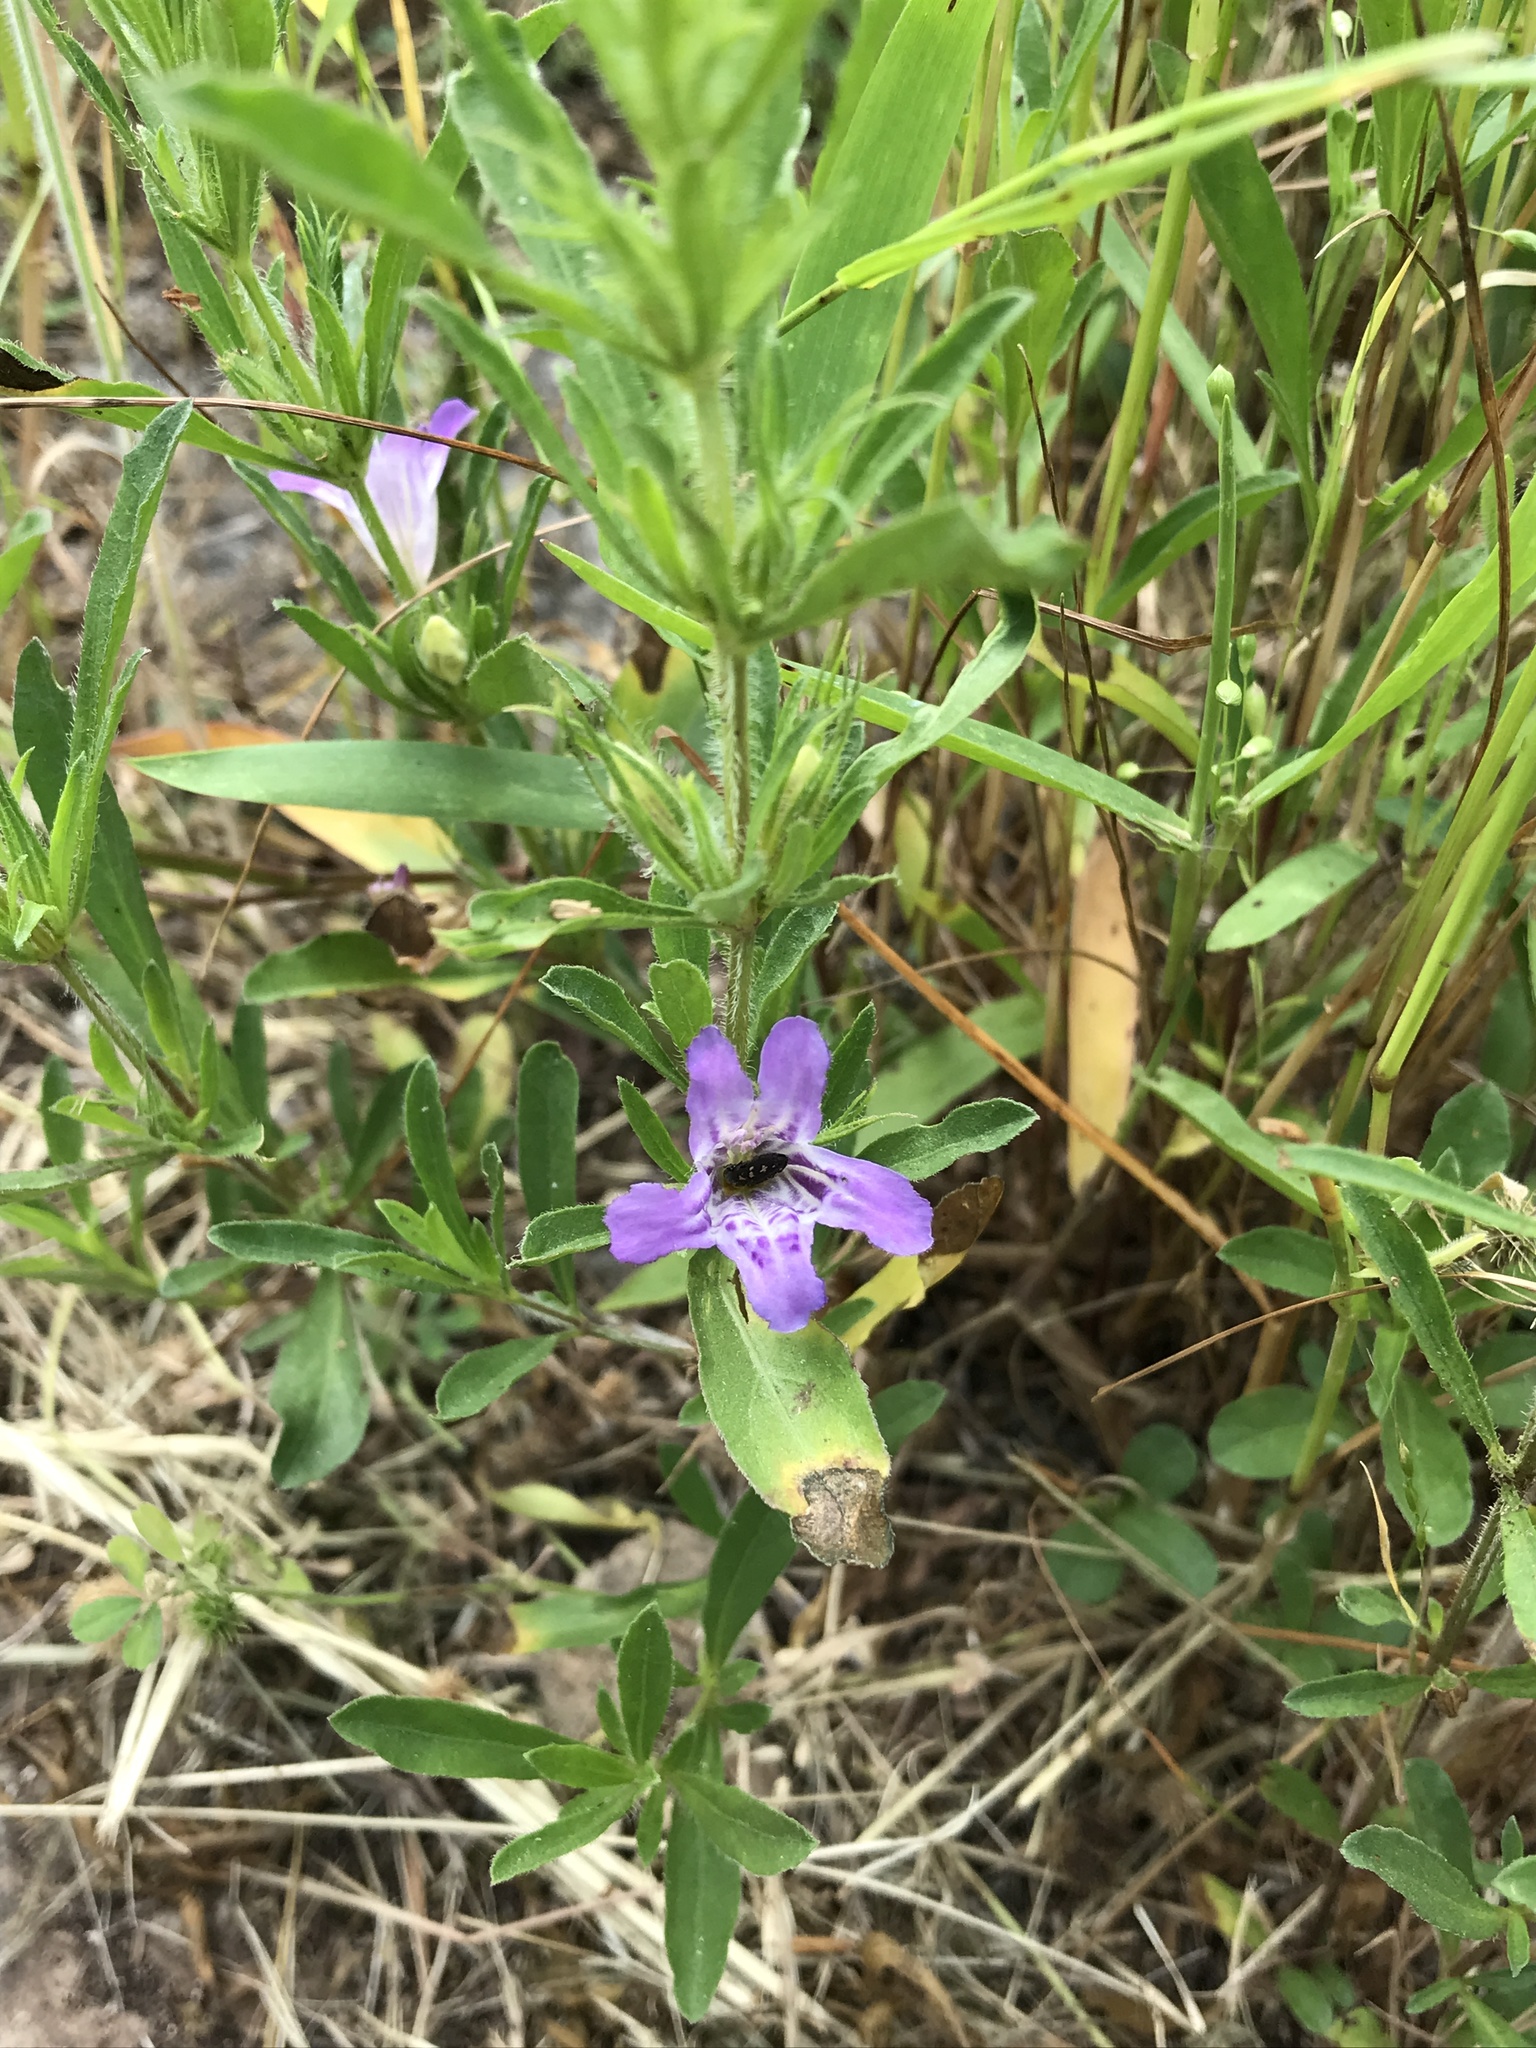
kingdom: Plantae
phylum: Tracheophyta
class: Magnoliopsida
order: Lamiales
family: Acanthaceae
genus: Dyschoriste
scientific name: Dyschoriste linearis
